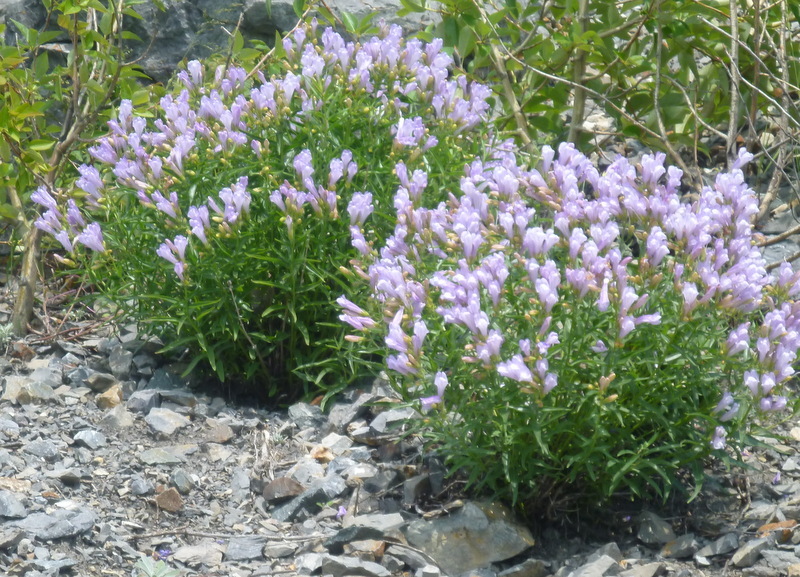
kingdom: Plantae
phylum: Tracheophyta
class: Magnoliopsida
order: Lamiales
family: Plantaginaceae
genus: Penstemon
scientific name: Penstemon lyalli
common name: Lyall's beardtongue
